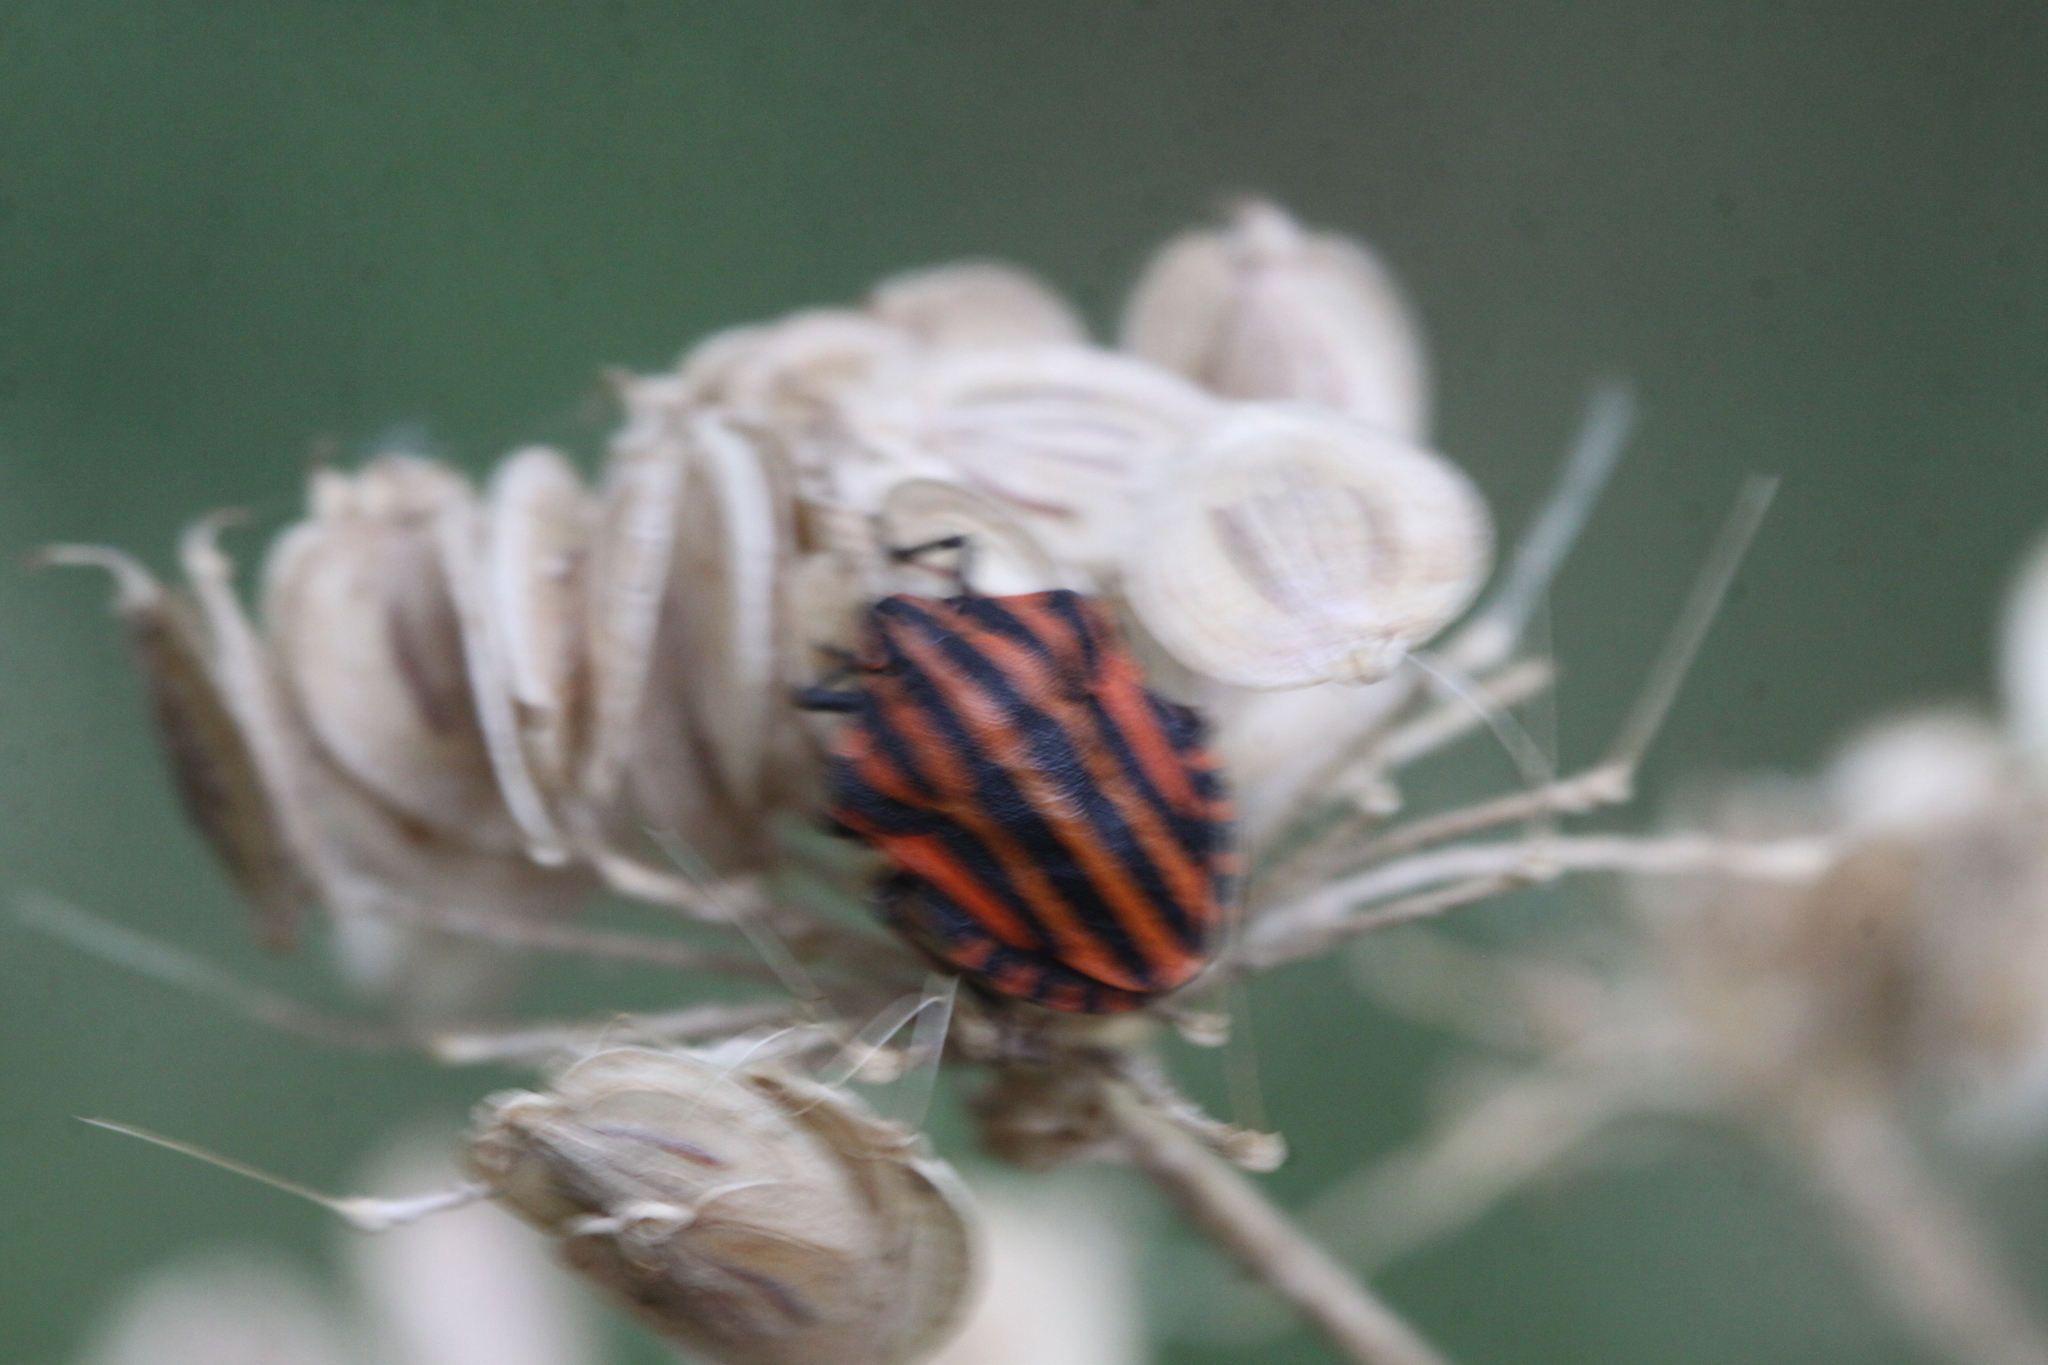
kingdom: Animalia
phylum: Arthropoda
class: Insecta
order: Hemiptera
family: Pentatomidae
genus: Graphosoma
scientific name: Graphosoma italicum
